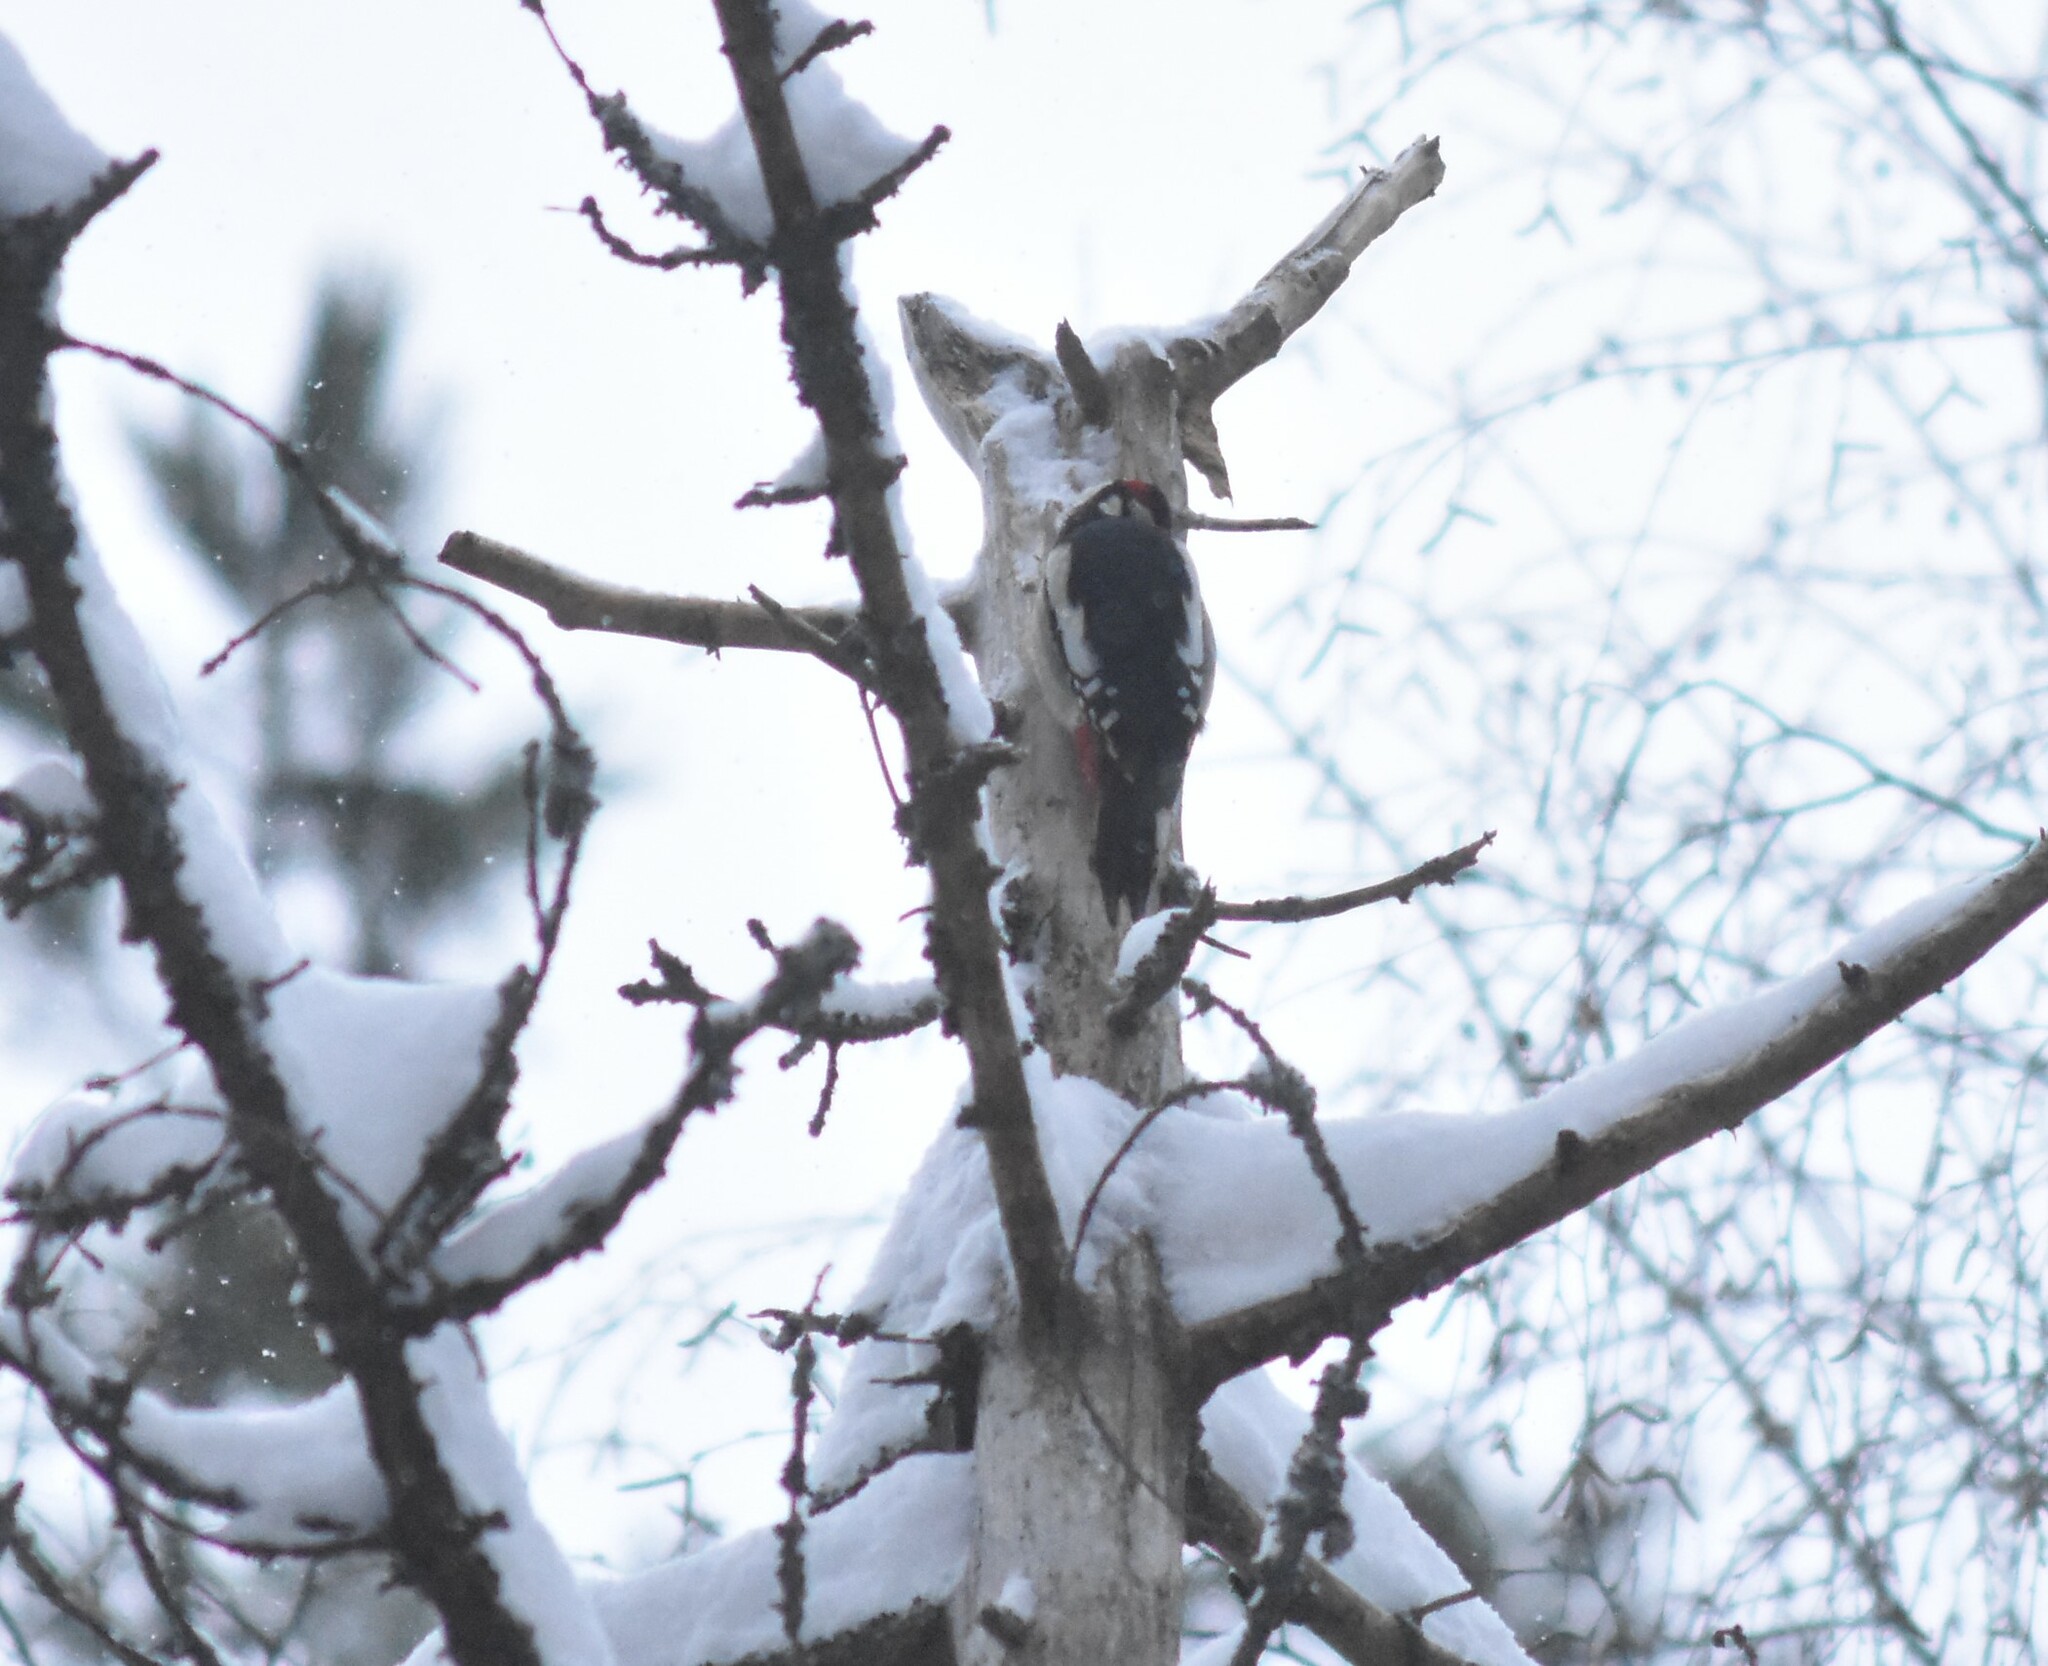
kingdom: Animalia
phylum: Chordata
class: Aves
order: Piciformes
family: Picidae
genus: Dendrocopos
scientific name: Dendrocopos major
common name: Great spotted woodpecker
